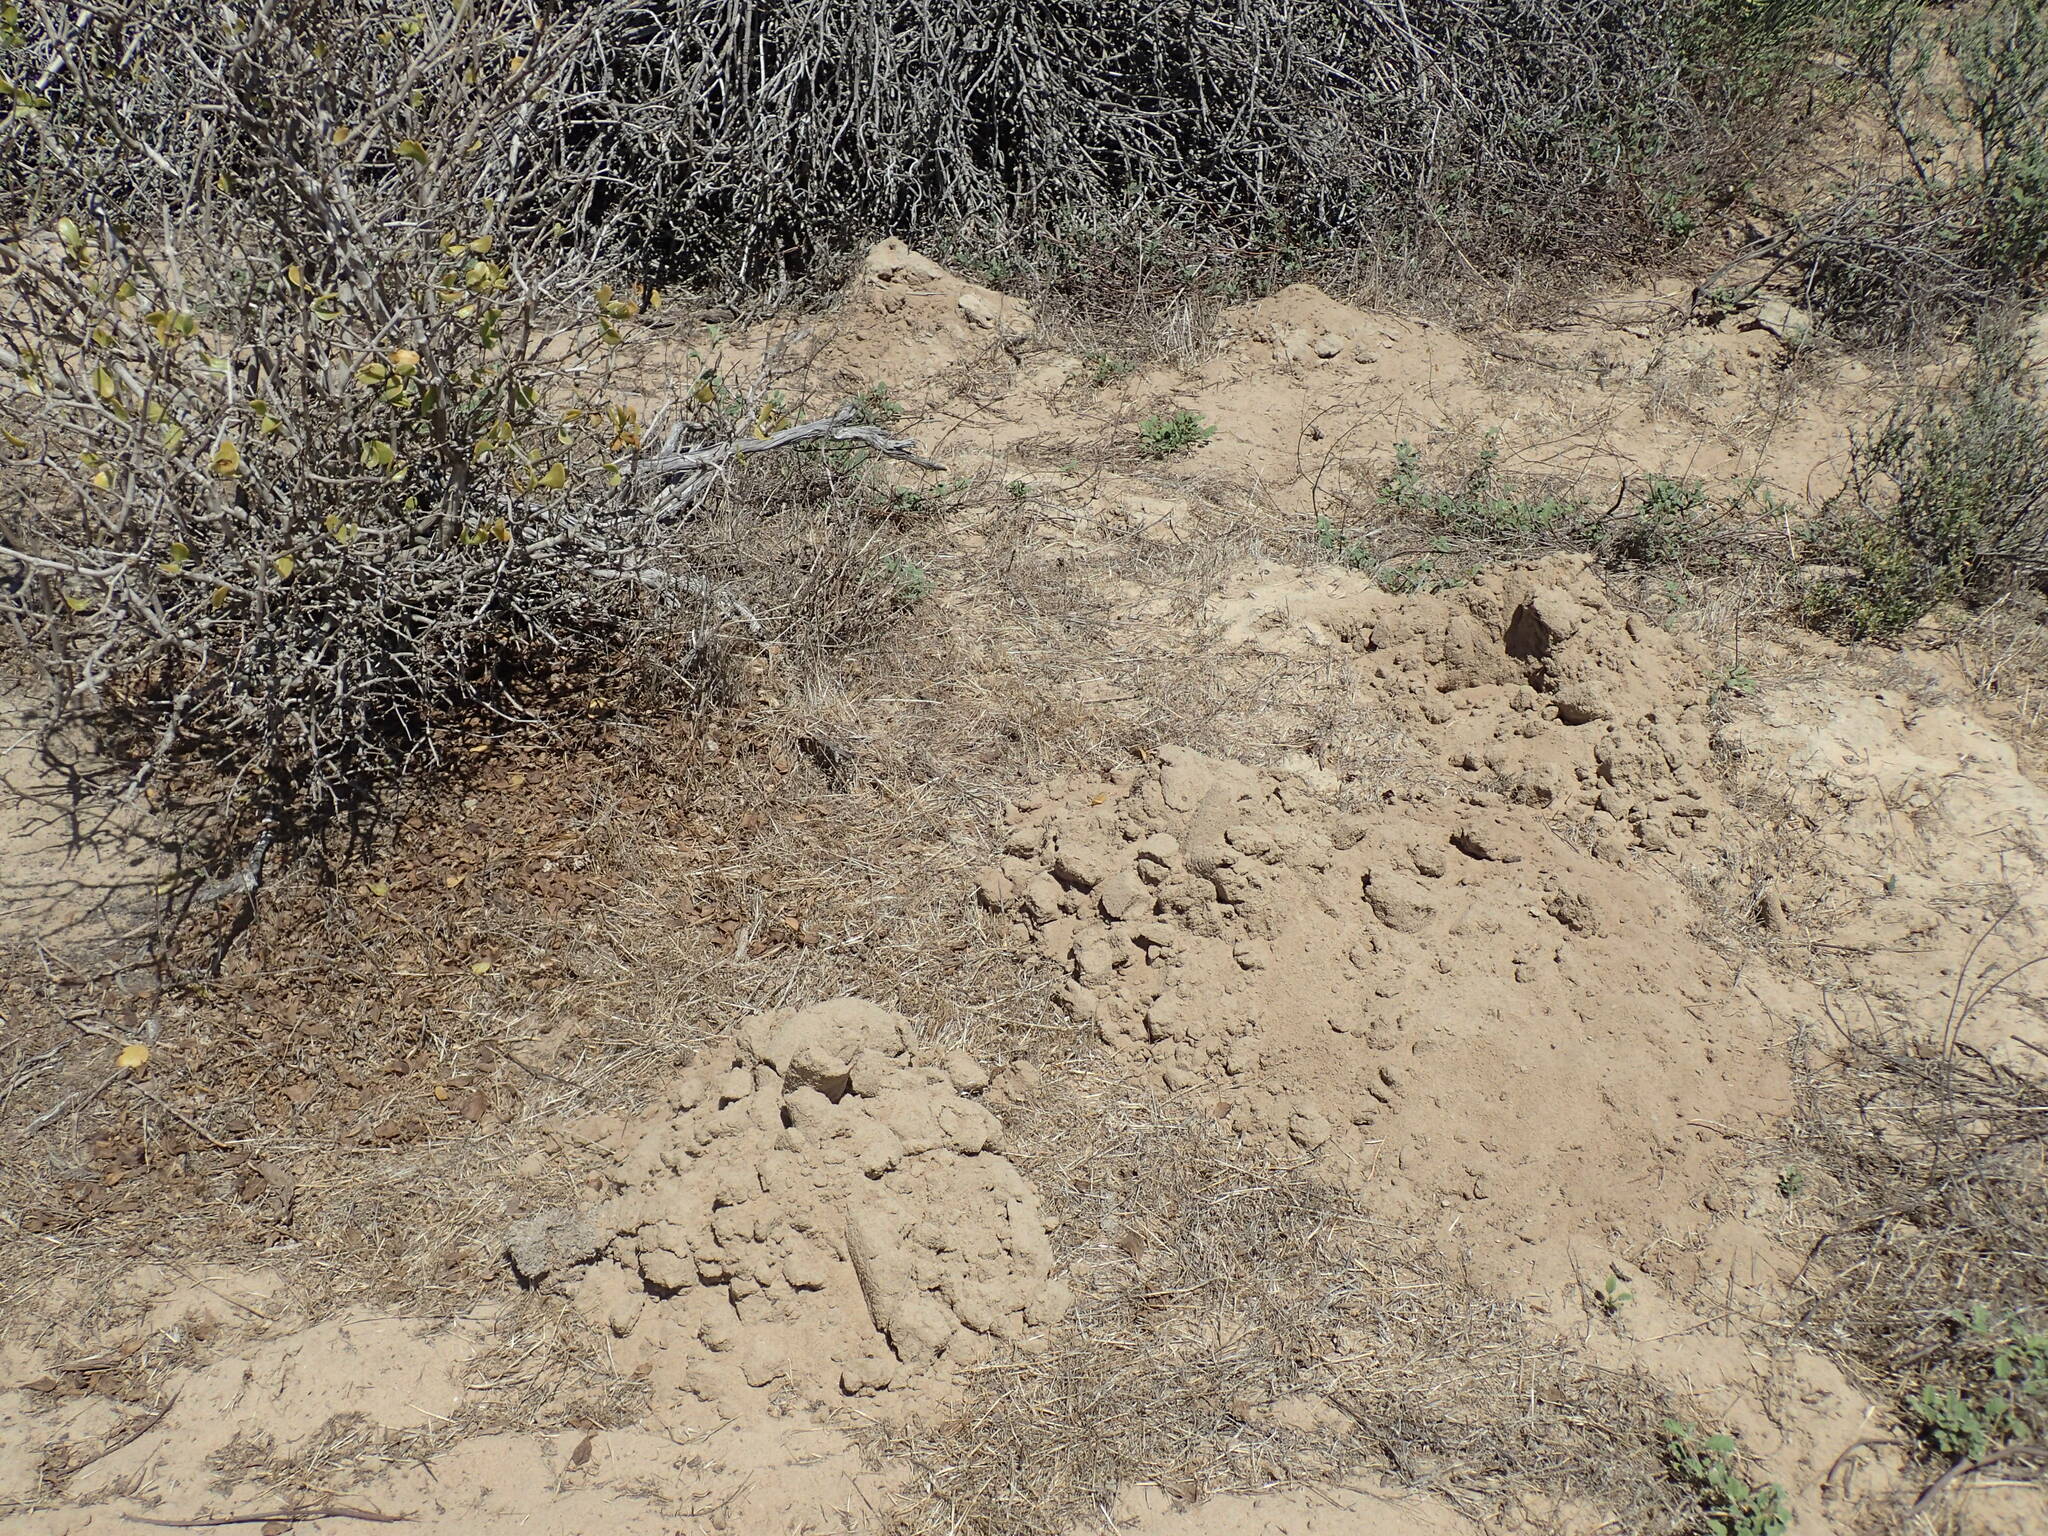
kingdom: Animalia
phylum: Chordata
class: Mammalia
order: Rodentia
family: Bathyergidae
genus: Bathyergus
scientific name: Bathyergus suillus
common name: Cape dune mole rat
